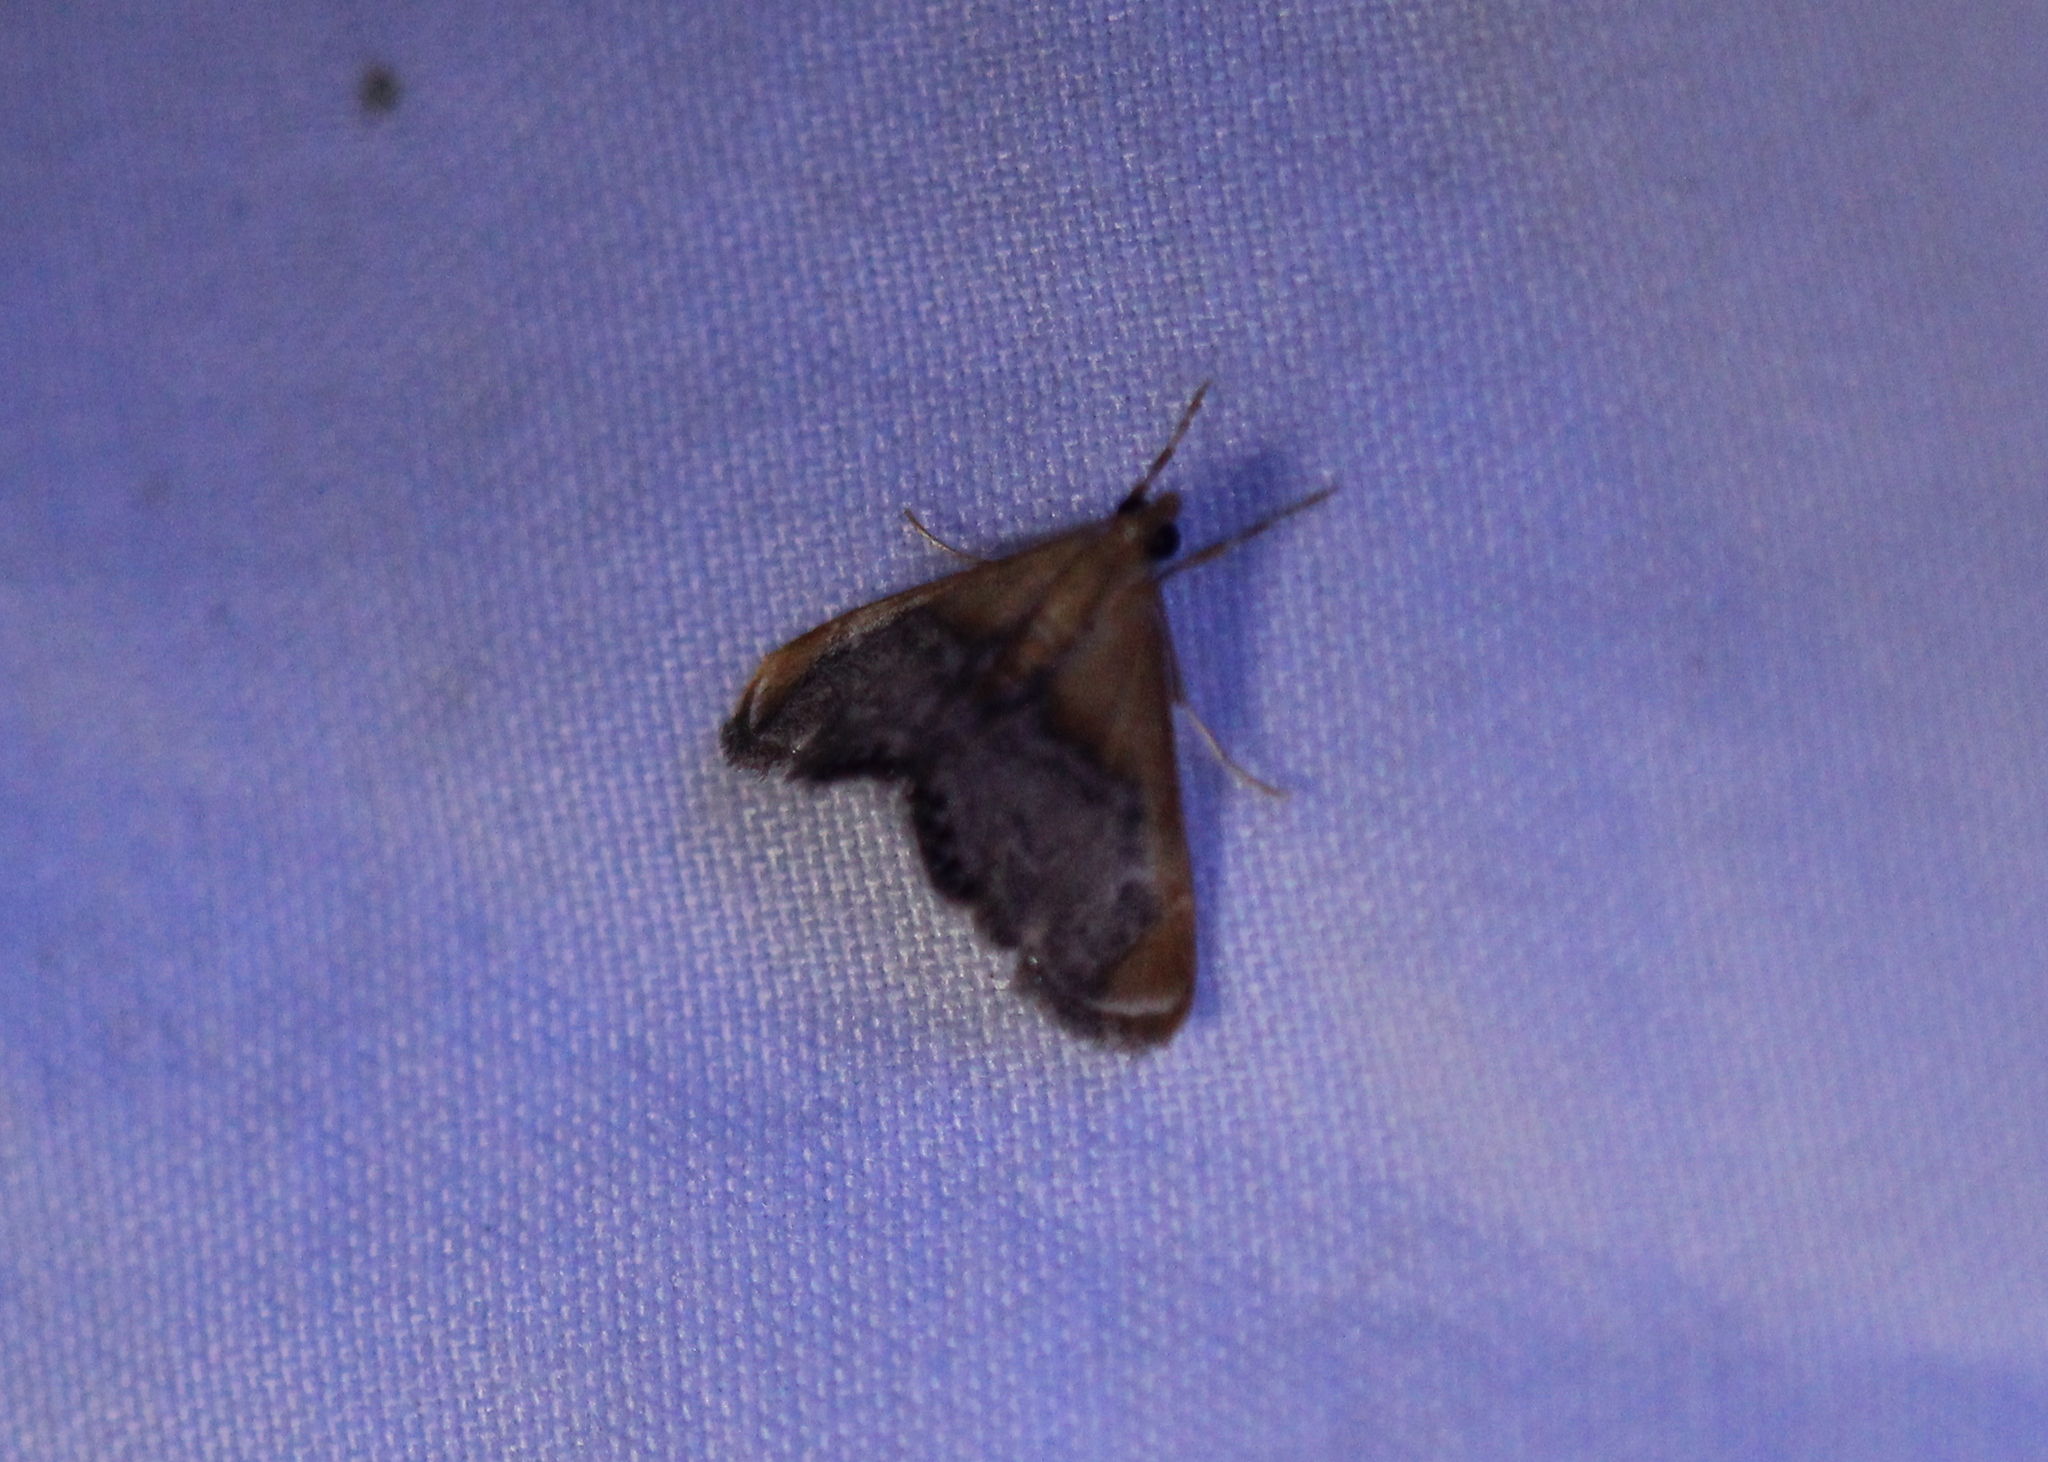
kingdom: Animalia
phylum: Arthropoda
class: Insecta
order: Lepidoptera
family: Crambidae
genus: Chalcoela
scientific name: Chalcoela iphitalis
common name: Sooty-winged chalcoela moth
